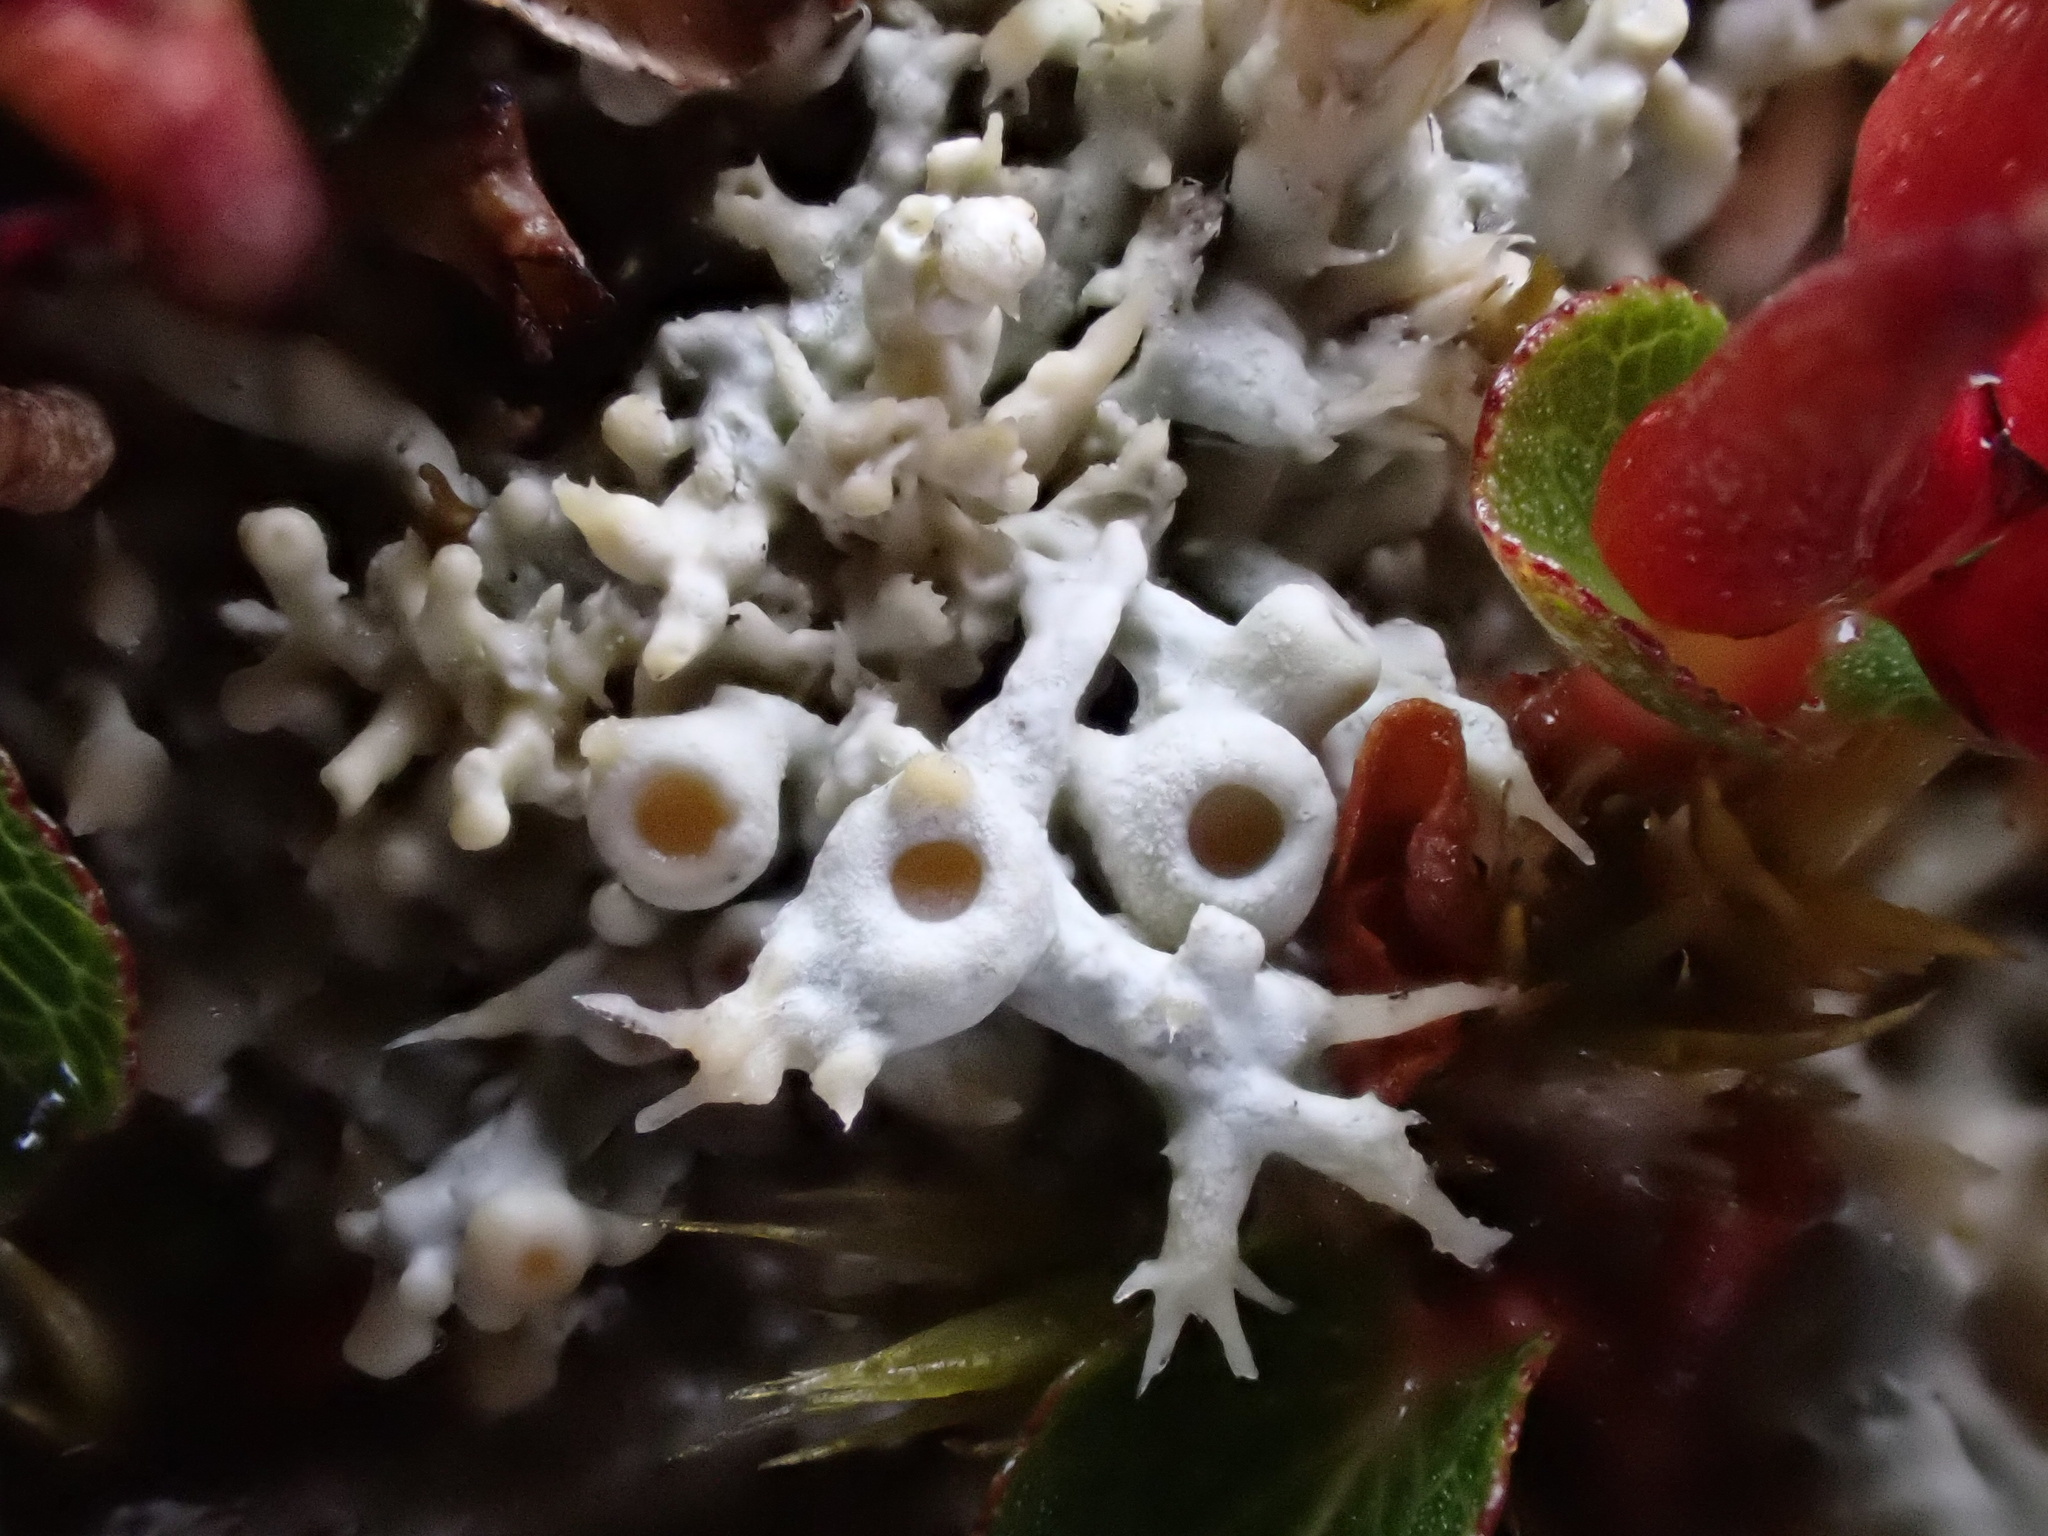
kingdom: Fungi
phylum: Ascomycota
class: Lecanoromycetes
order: Pertusariales
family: Ochrolechiaceae
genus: Ochrolechia
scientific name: Ochrolechia frigida
